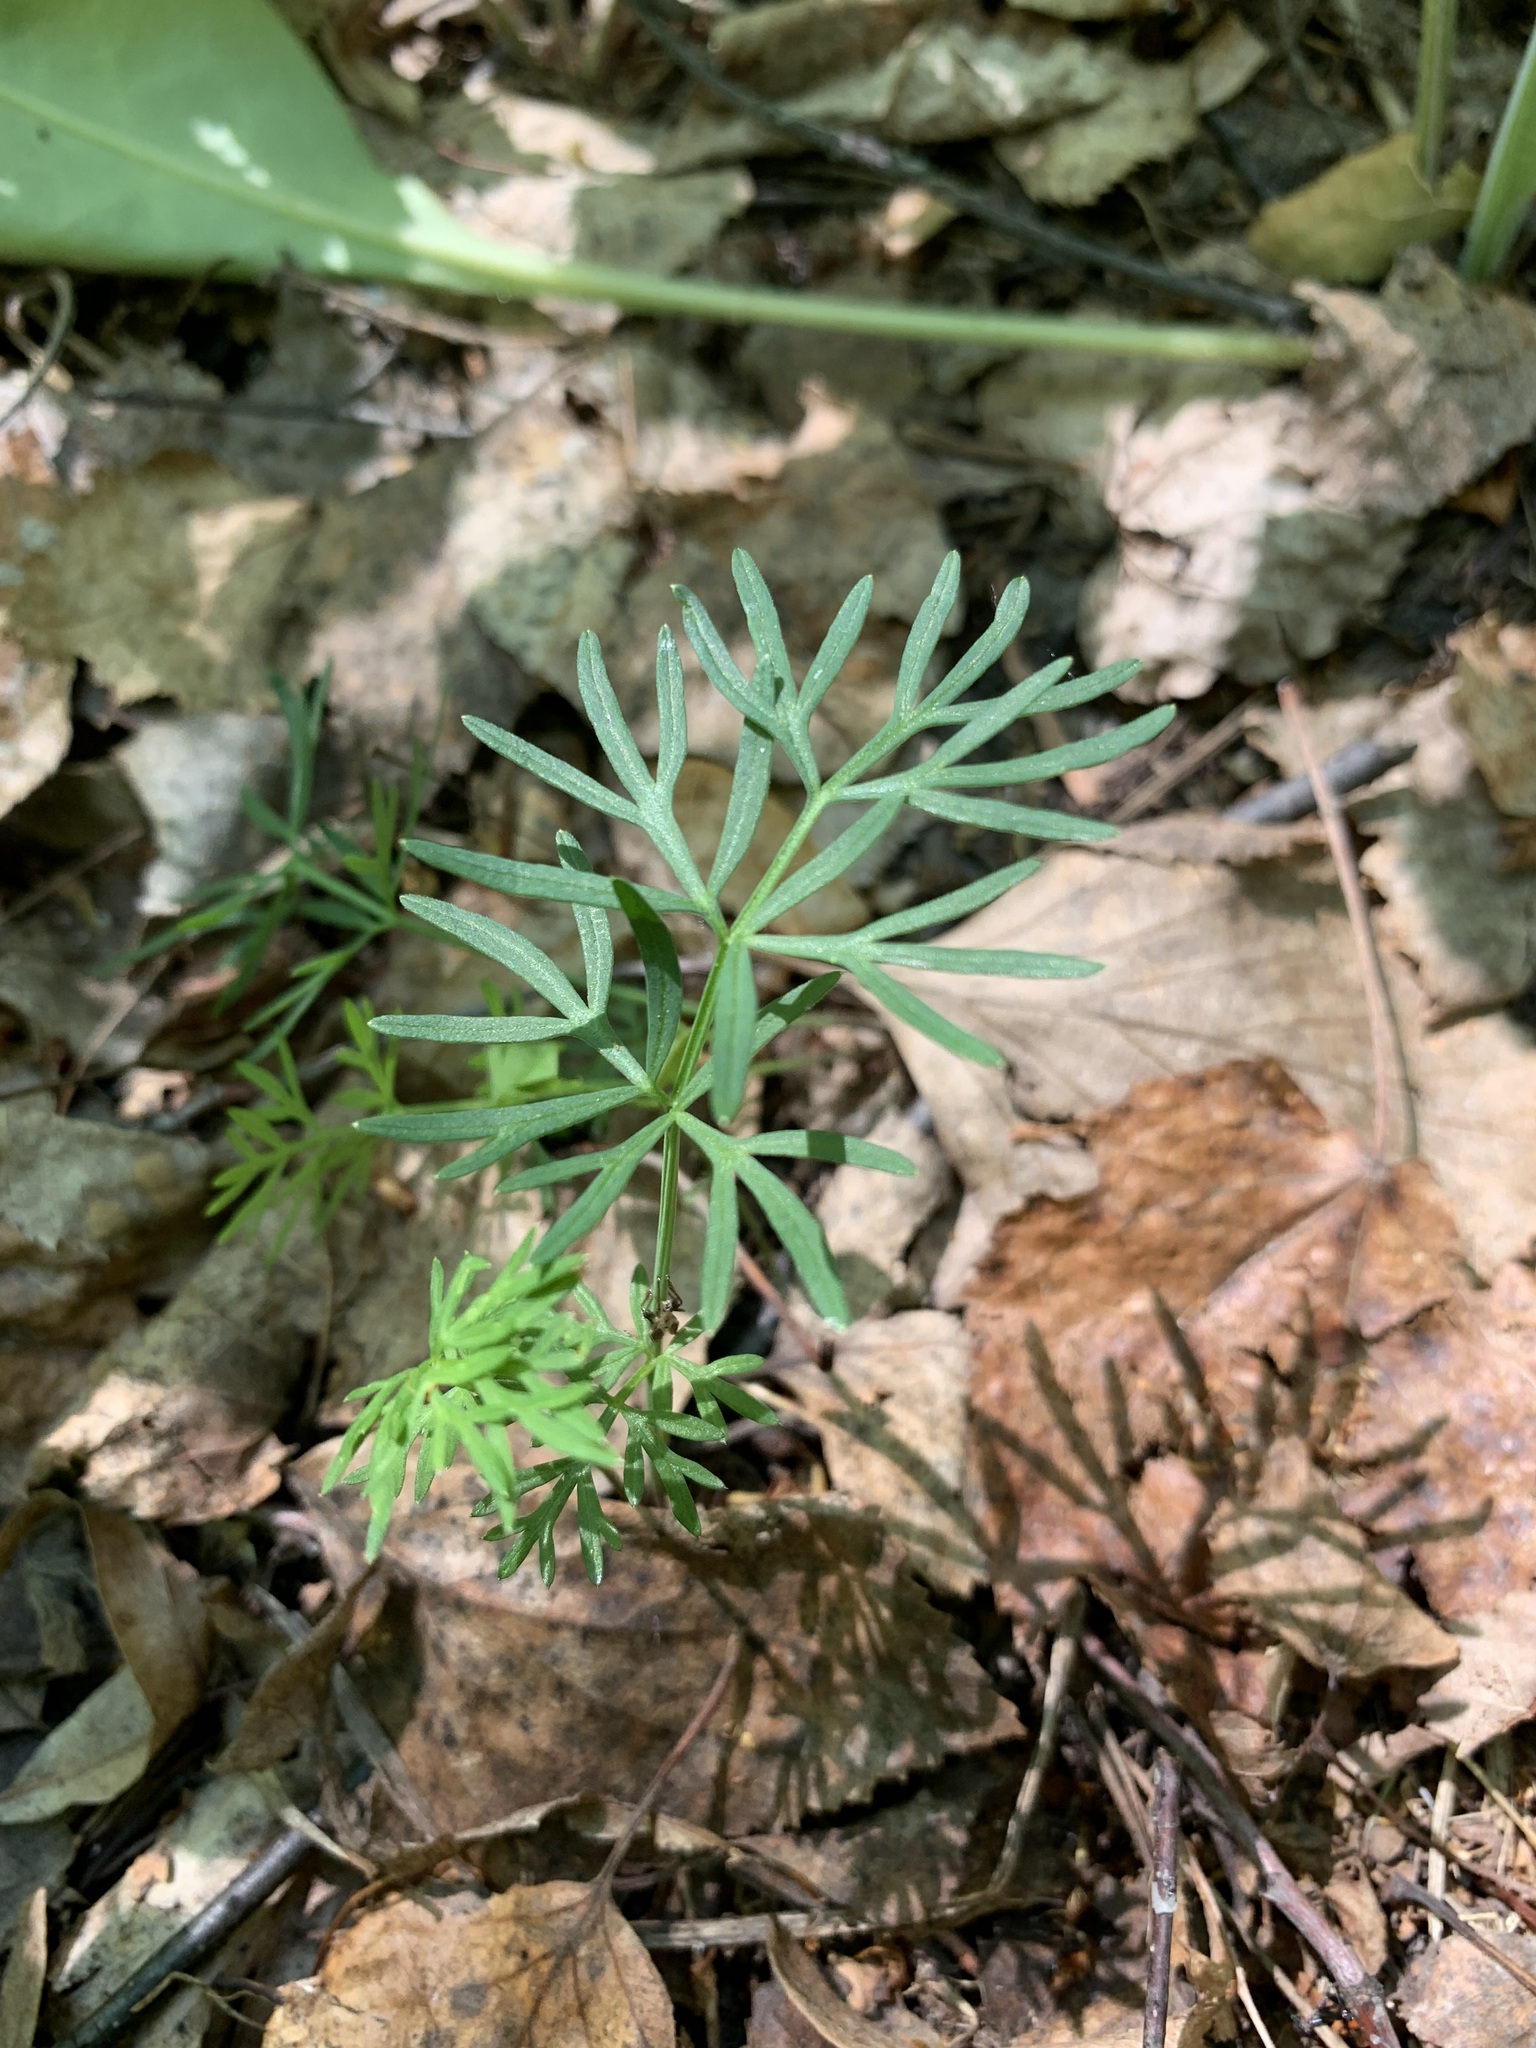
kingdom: Plantae
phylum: Tracheophyta
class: Magnoliopsida
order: Apiales
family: Apiaceae
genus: Kadenia
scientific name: Kadenia dubia
